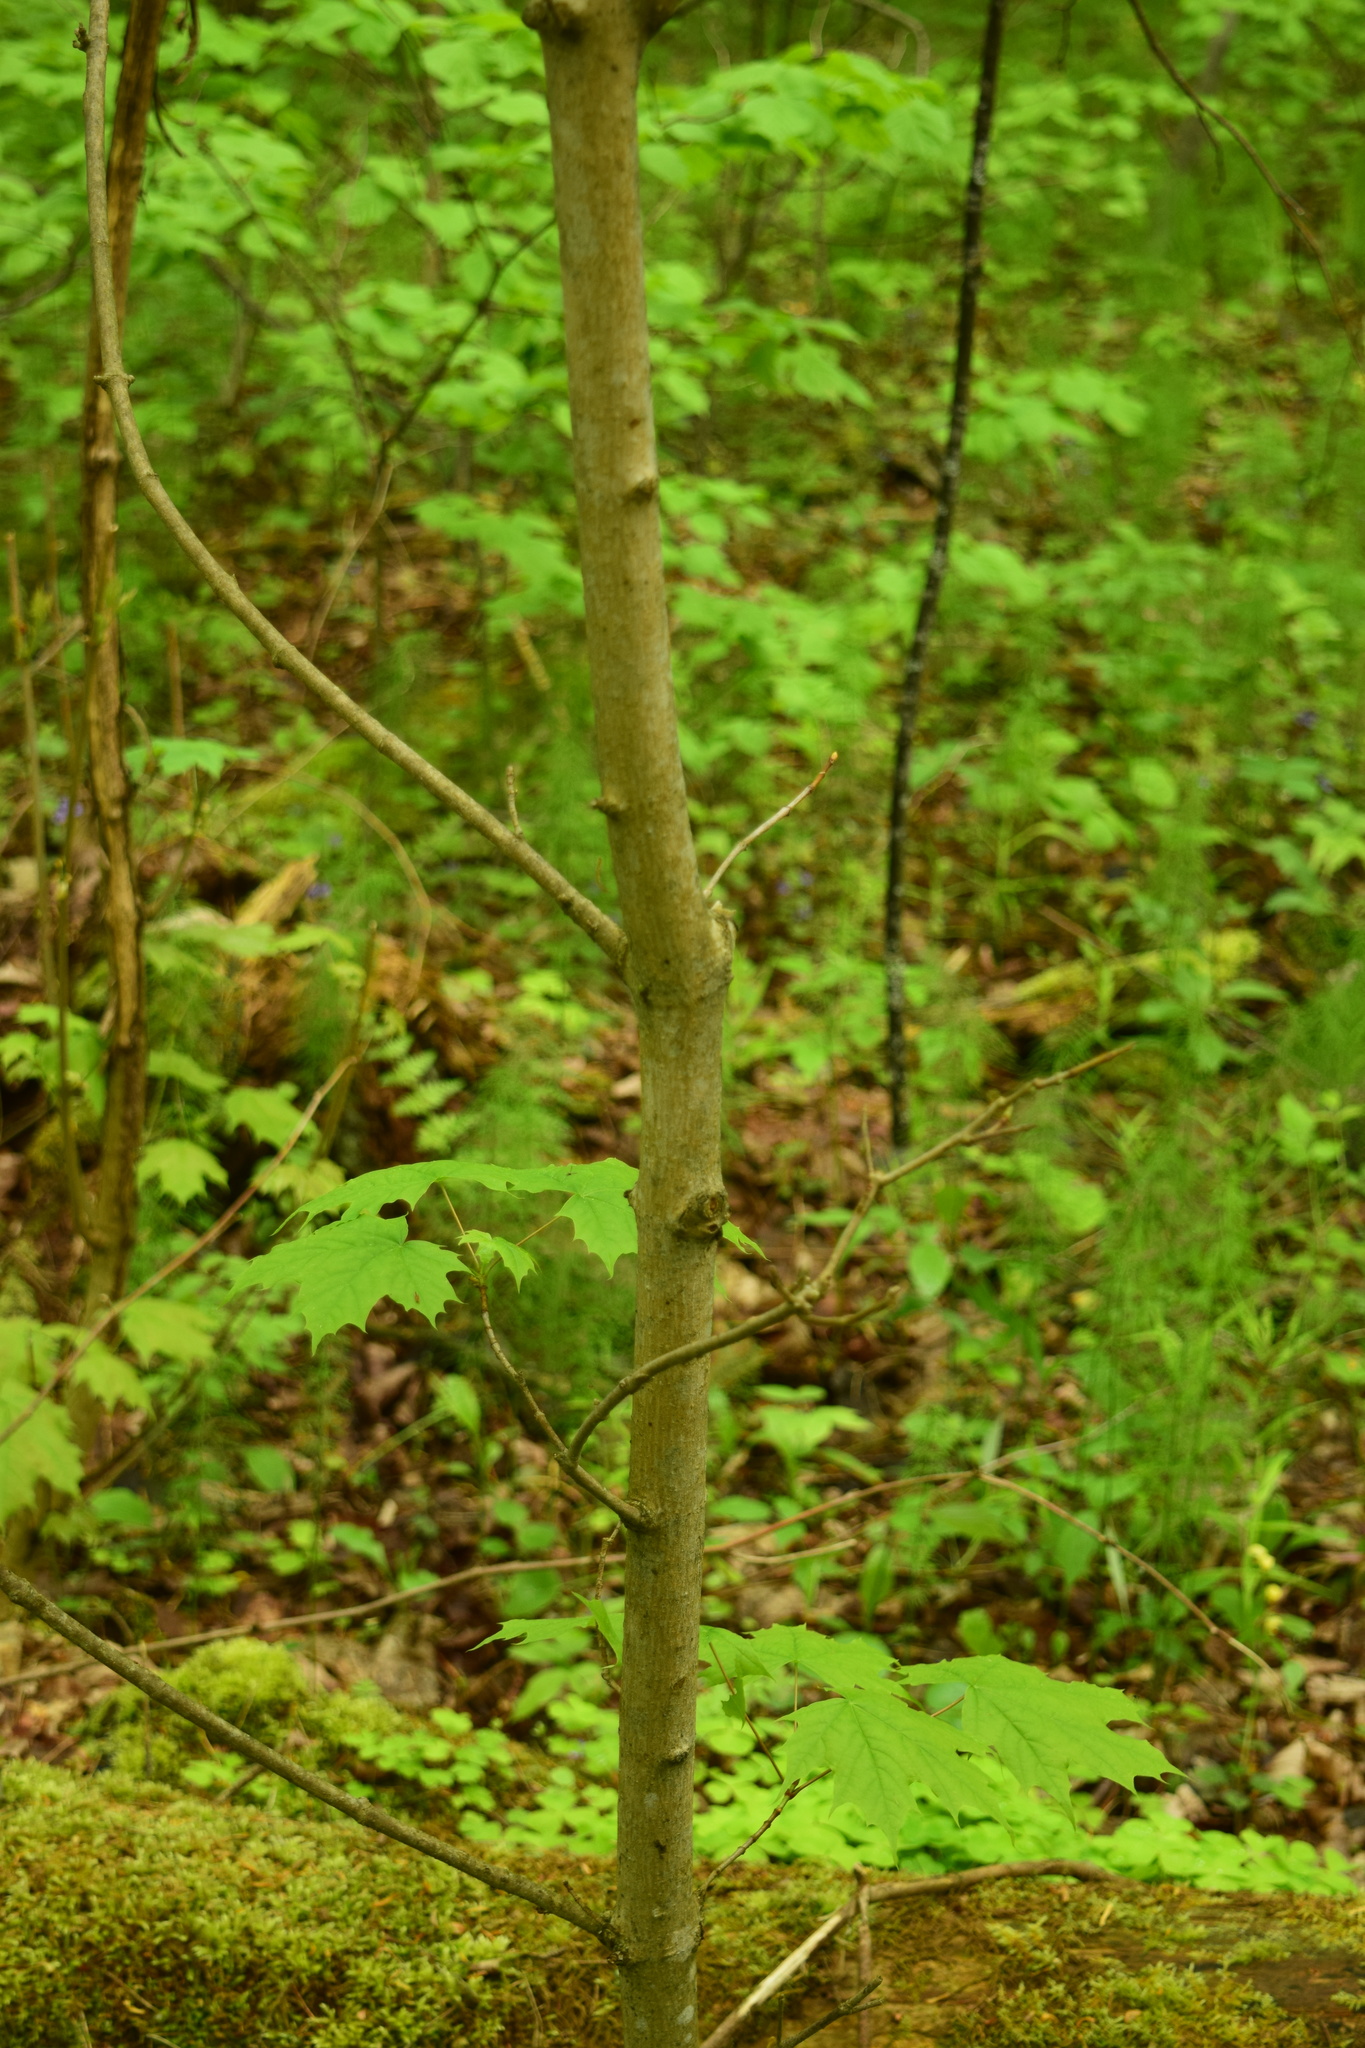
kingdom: Plantae
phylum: Tracheophyta
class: Magnoliopsida
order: Sapindales
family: Sapindaceae
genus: Acer
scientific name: Acer platanoides
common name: Norway maple
